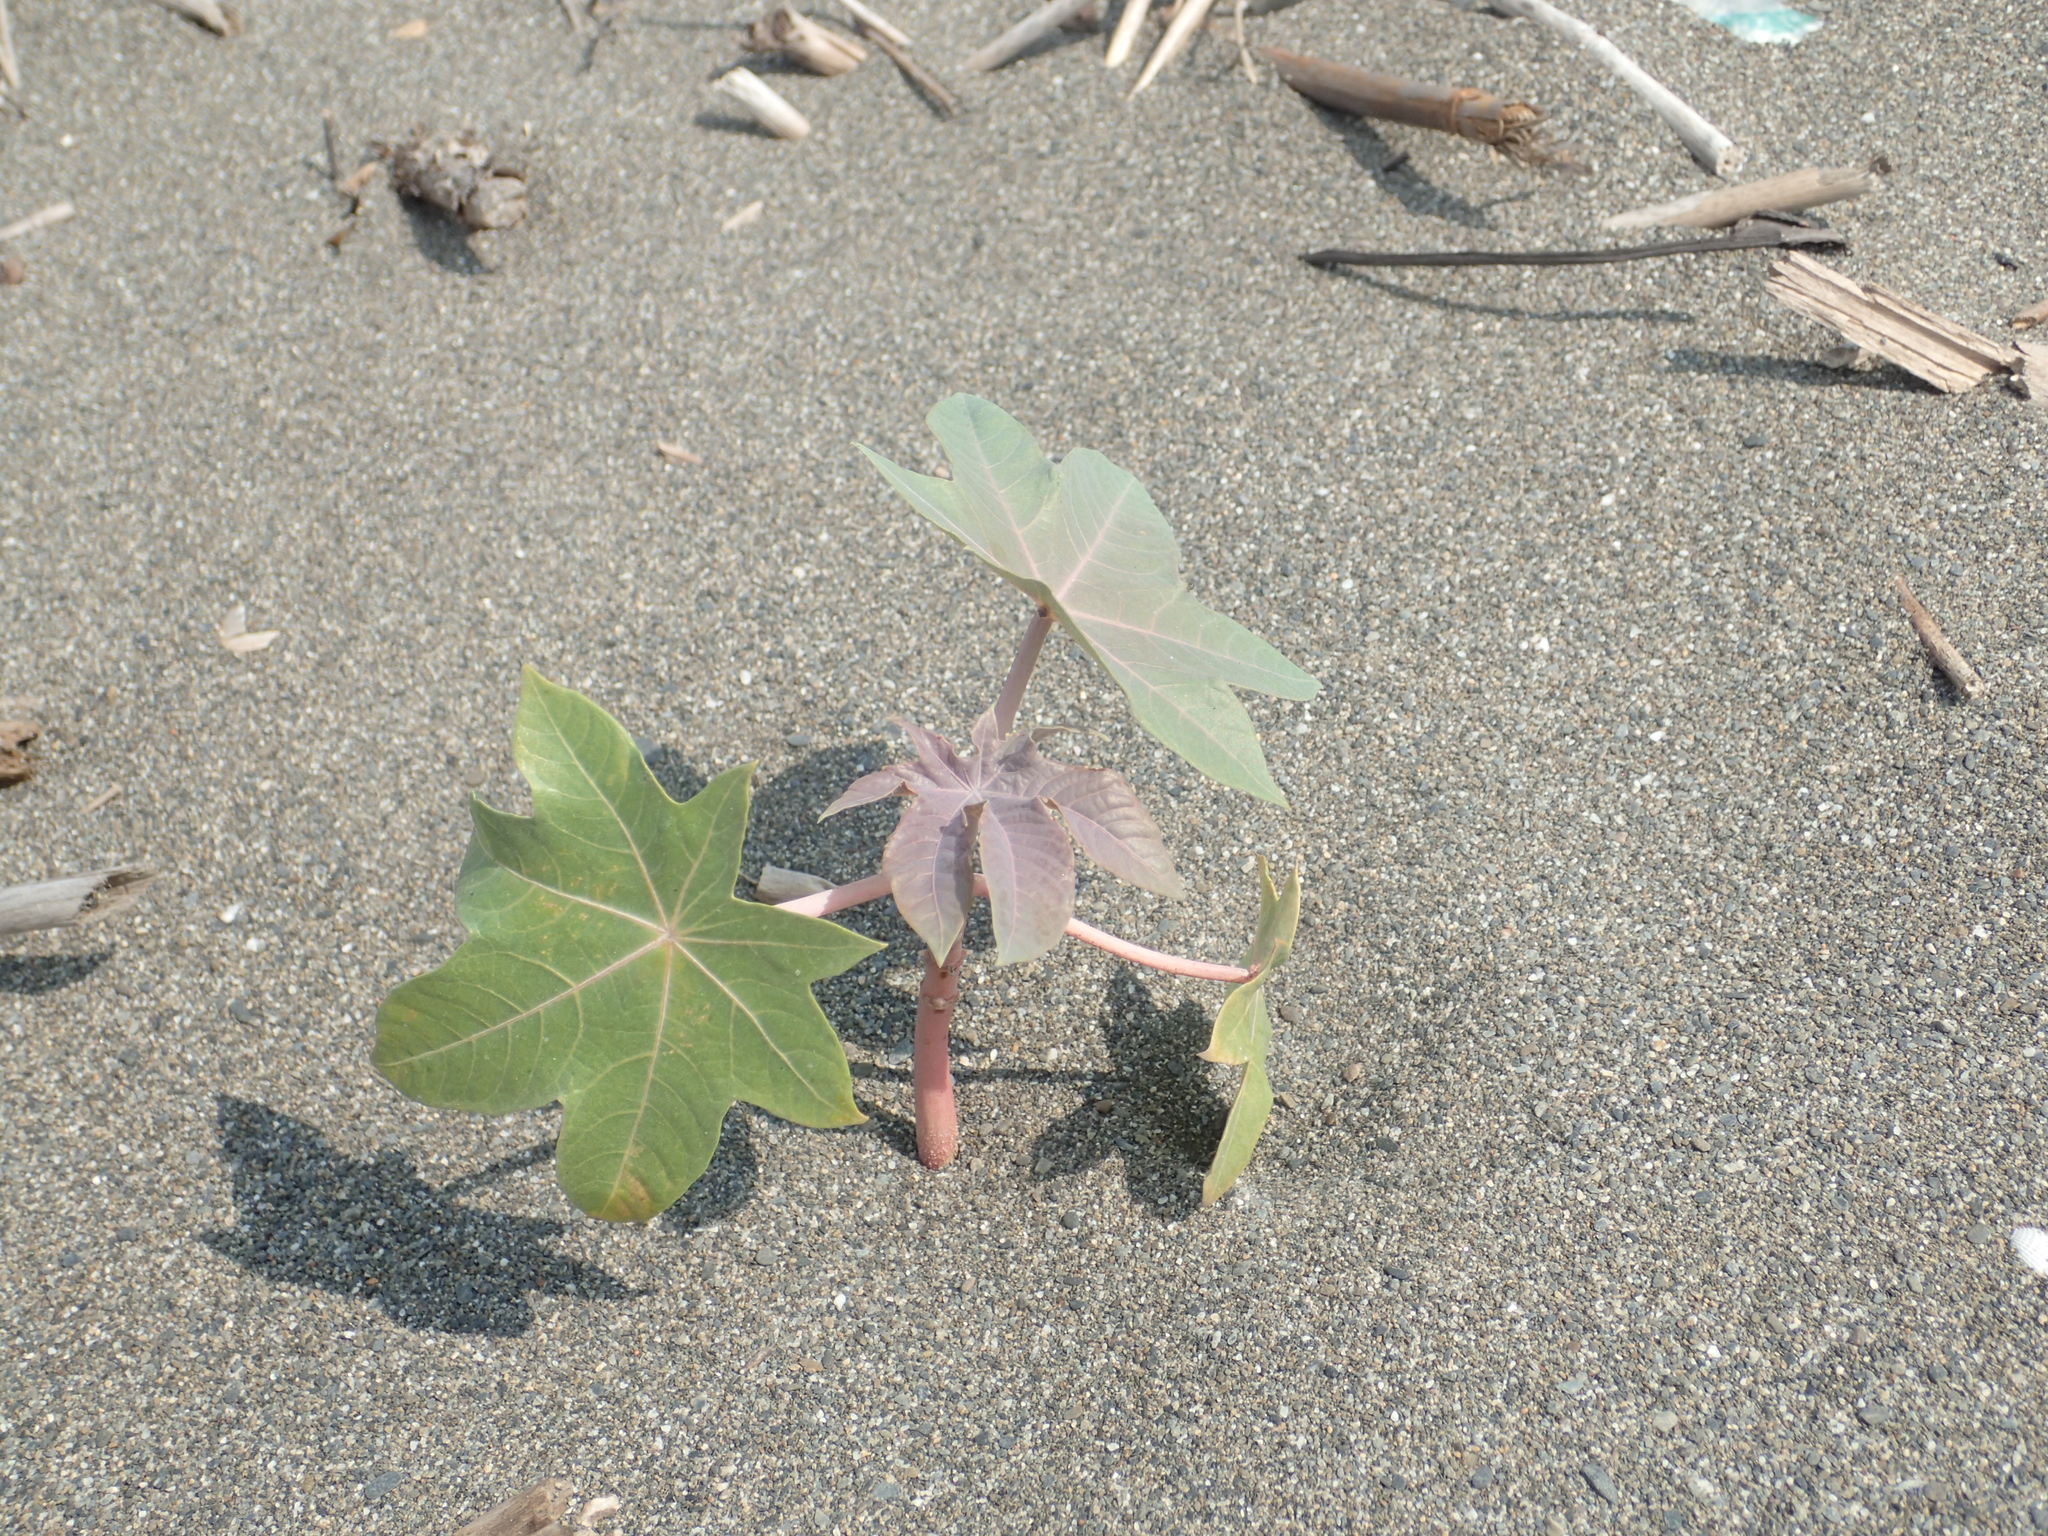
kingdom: Plantae
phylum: Tracheophyta
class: Magnoliopsida
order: Malpighiales
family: Euphorbiaceae
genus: Ricinus
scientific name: Ricinus communis
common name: Castor-oil-plant
